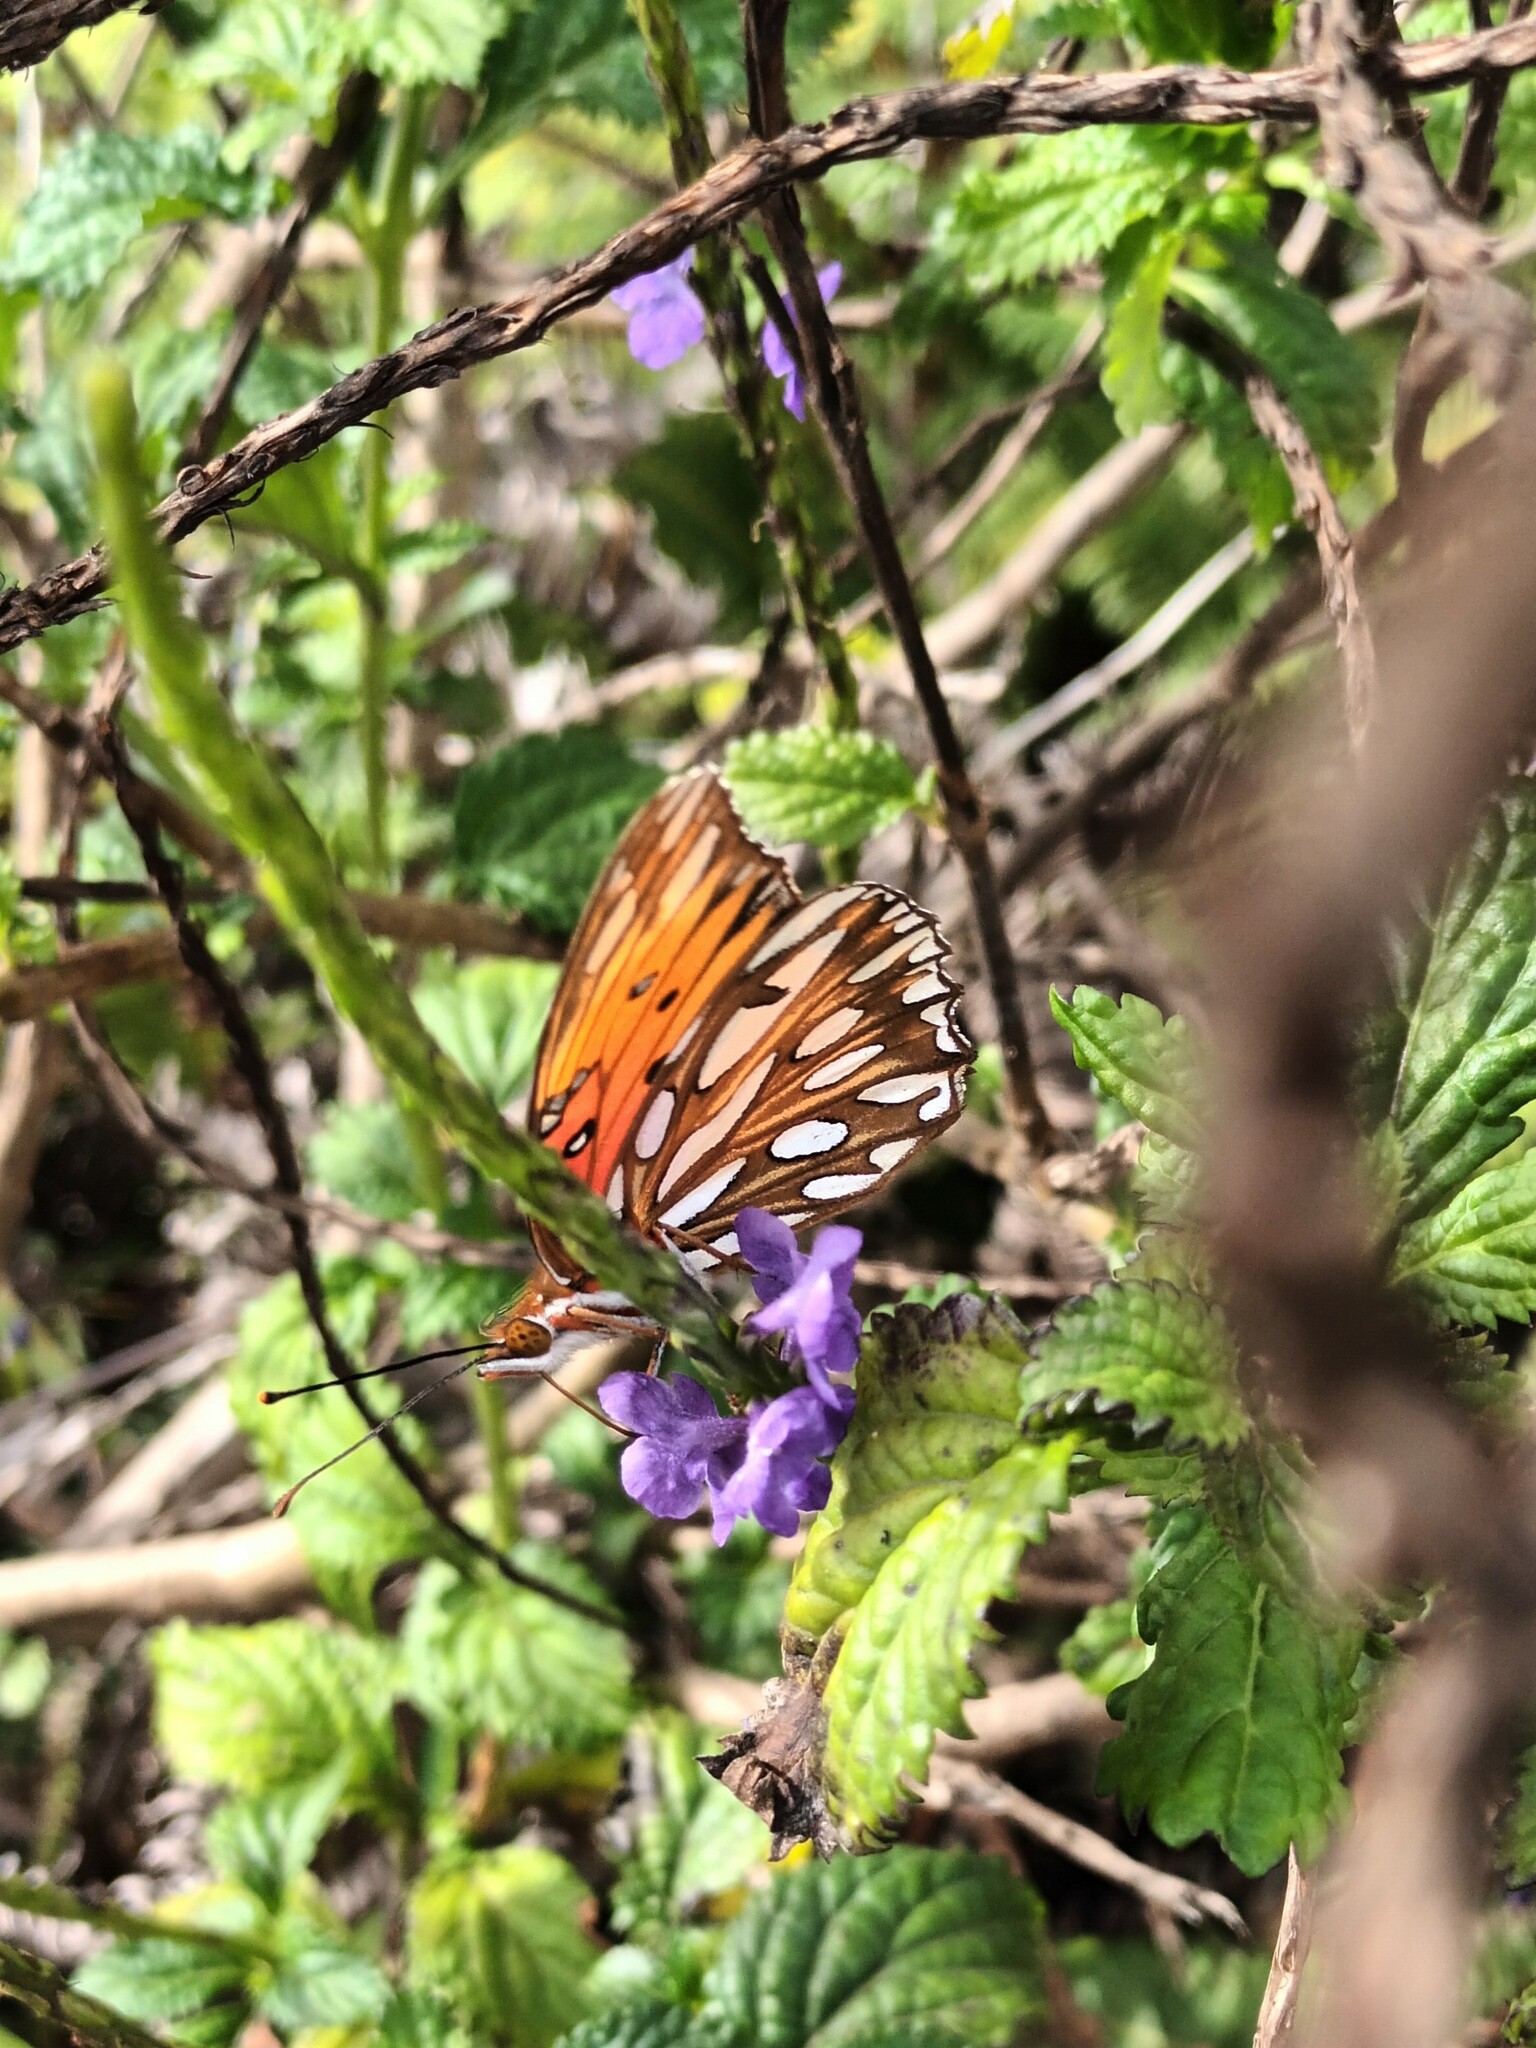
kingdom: Animalia
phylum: Arthropoda
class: Insecta
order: Lepidoptera
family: Nymphalidae
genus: Dione
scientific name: Dione vanillae
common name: Gulf fritillary
